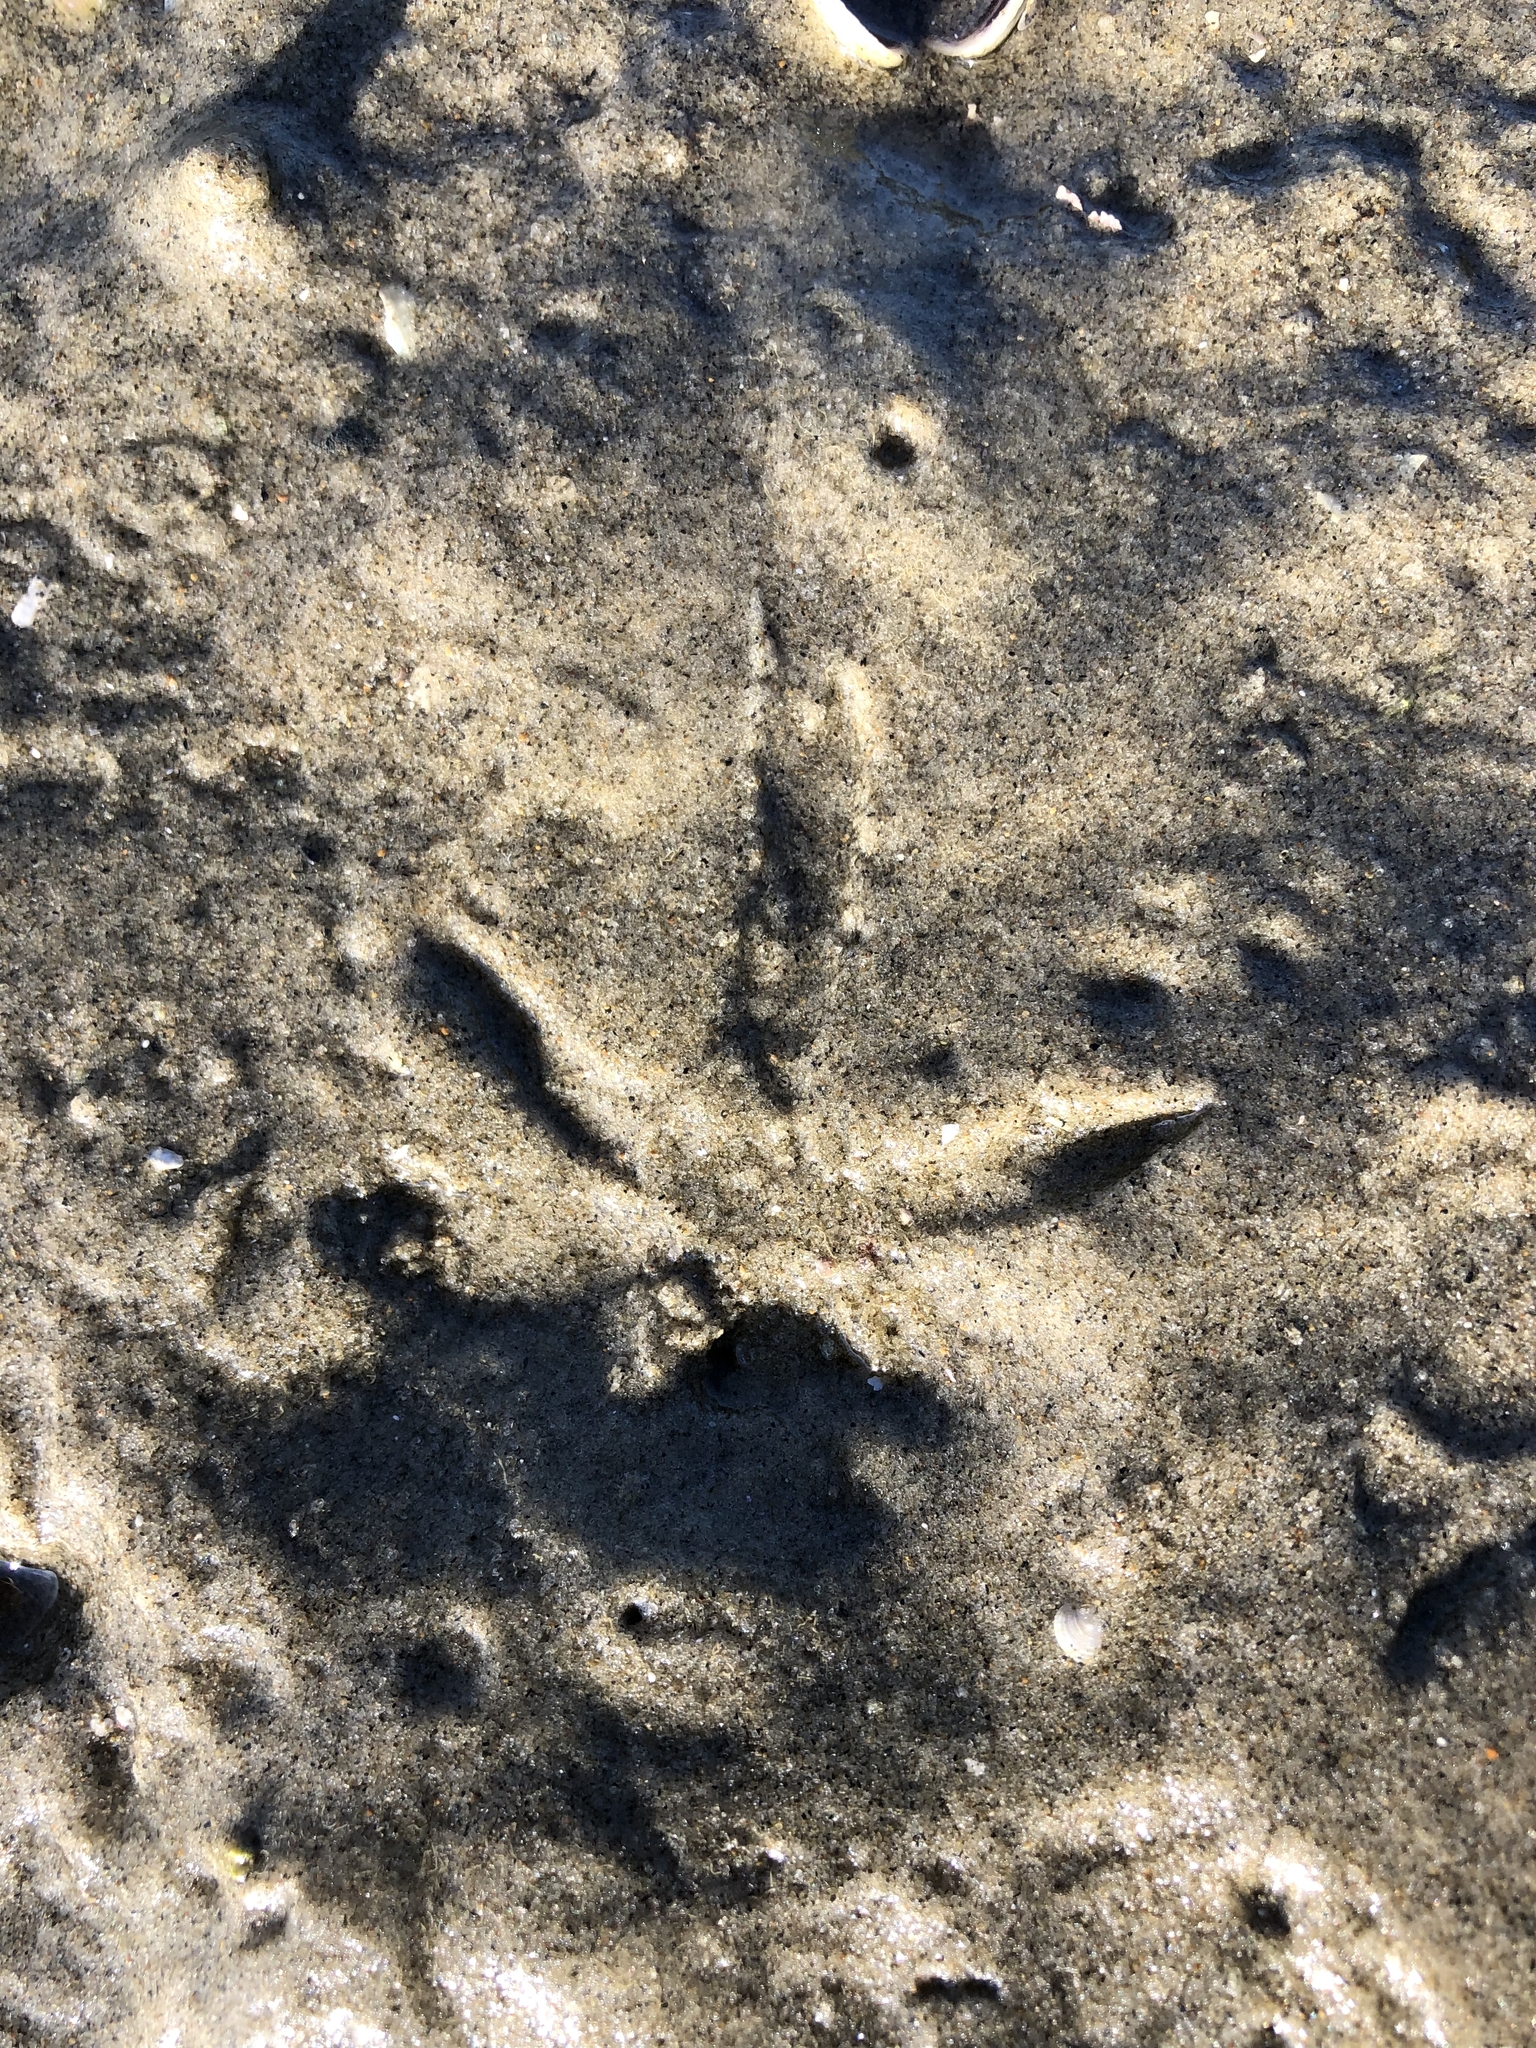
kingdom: Animalia
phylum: Chordata
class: Aves
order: Charadriiformes
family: Scolopacidae
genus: Limosa
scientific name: Limosa lapponica
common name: Bar-tailed godwit
